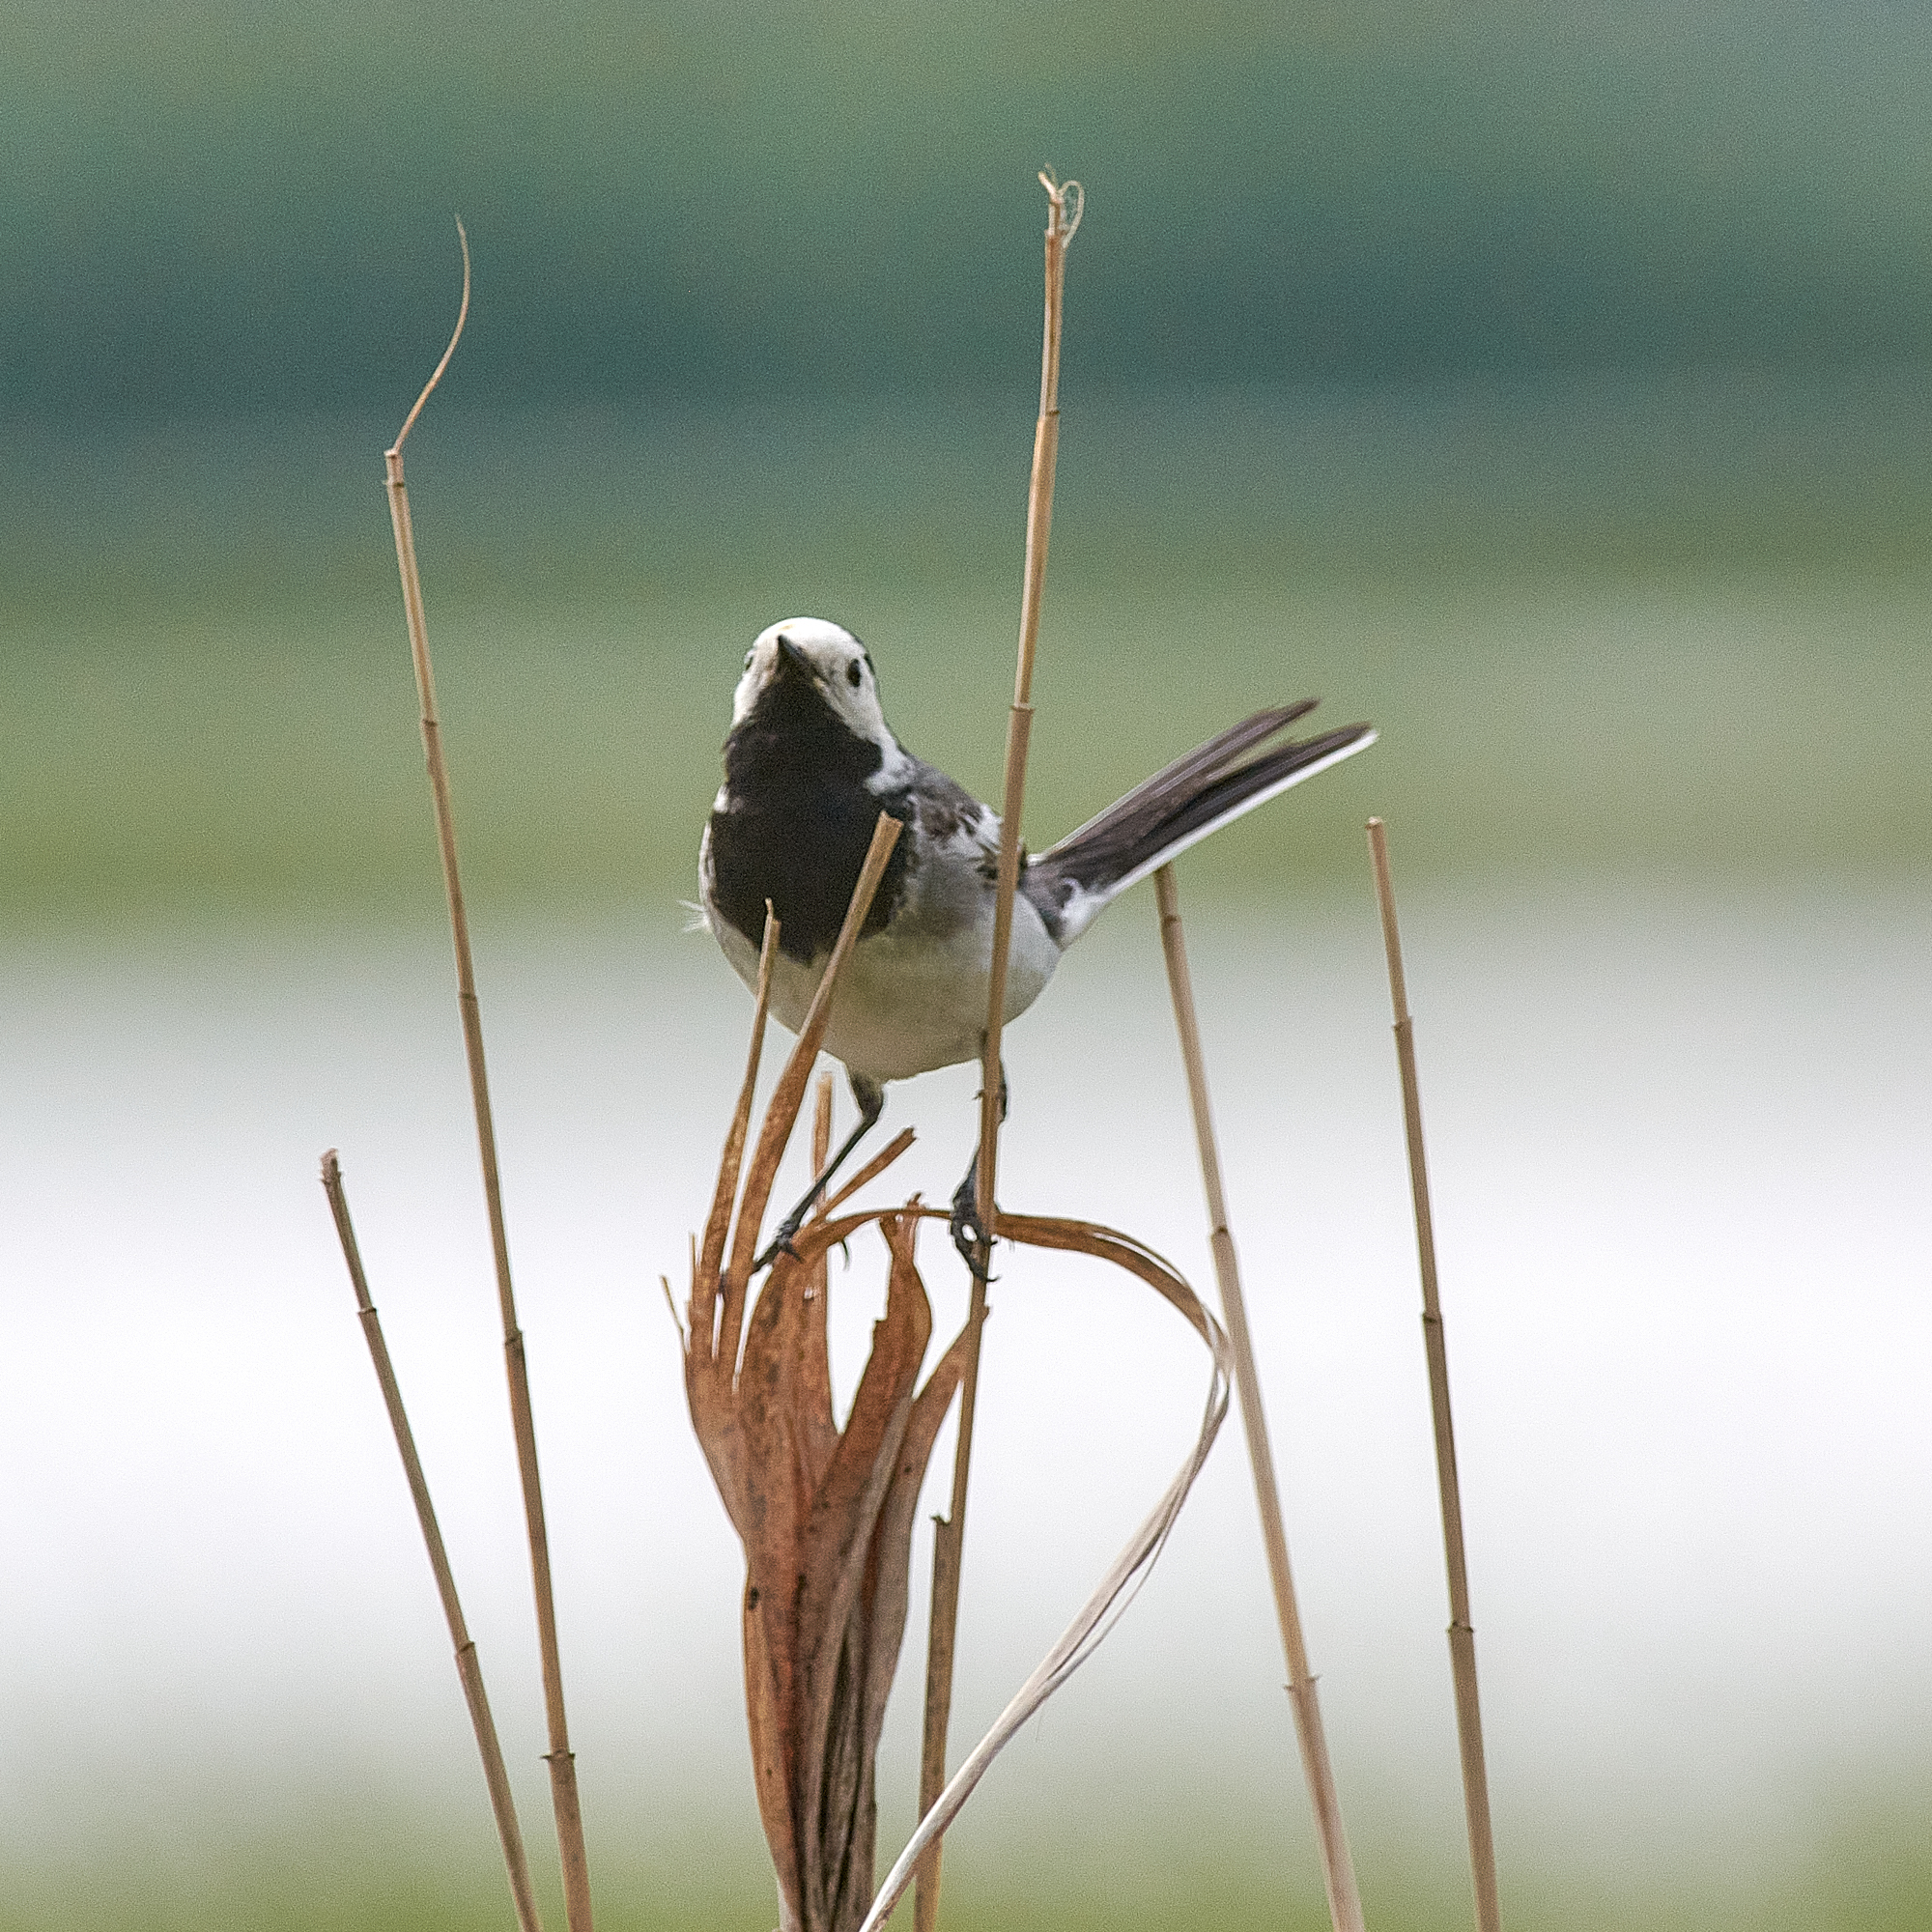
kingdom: Animalia
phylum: Chordata
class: Aves
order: Passeriformes
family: Motacillidae
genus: Motacilla
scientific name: Motacilla alba
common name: White wagtail
